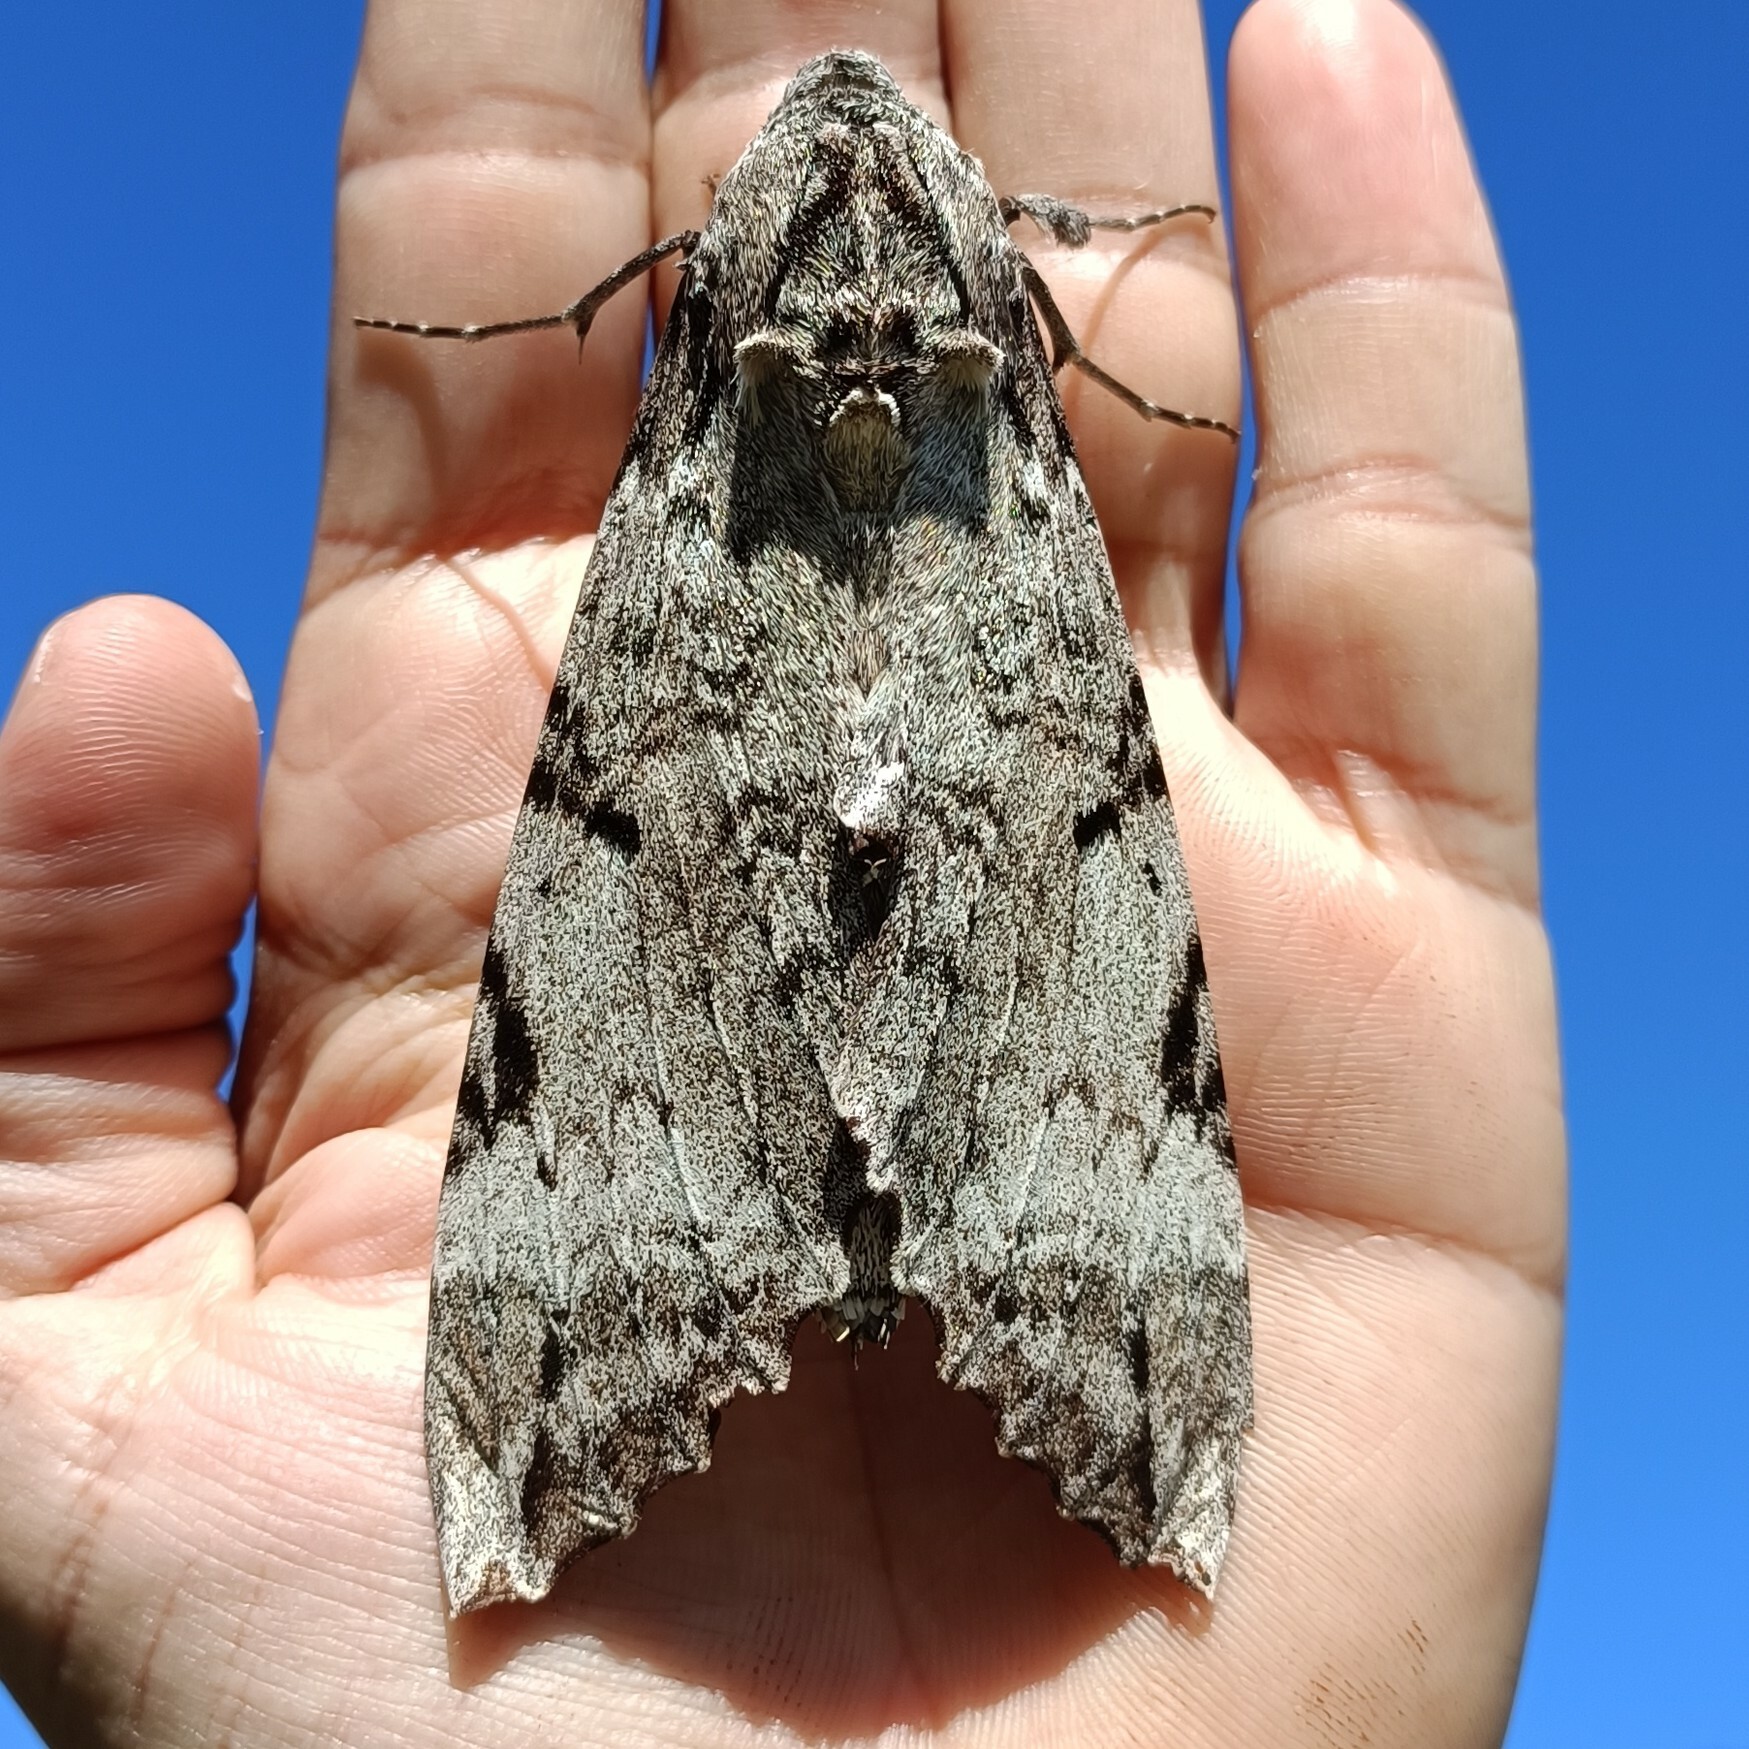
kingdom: Animalia
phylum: Arthropoda
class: Insecta
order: Lepidoptera
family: Sphingidae
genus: Pseudosphinx
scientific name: Pseudosphinx tetrio
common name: Tetrio sphinx
